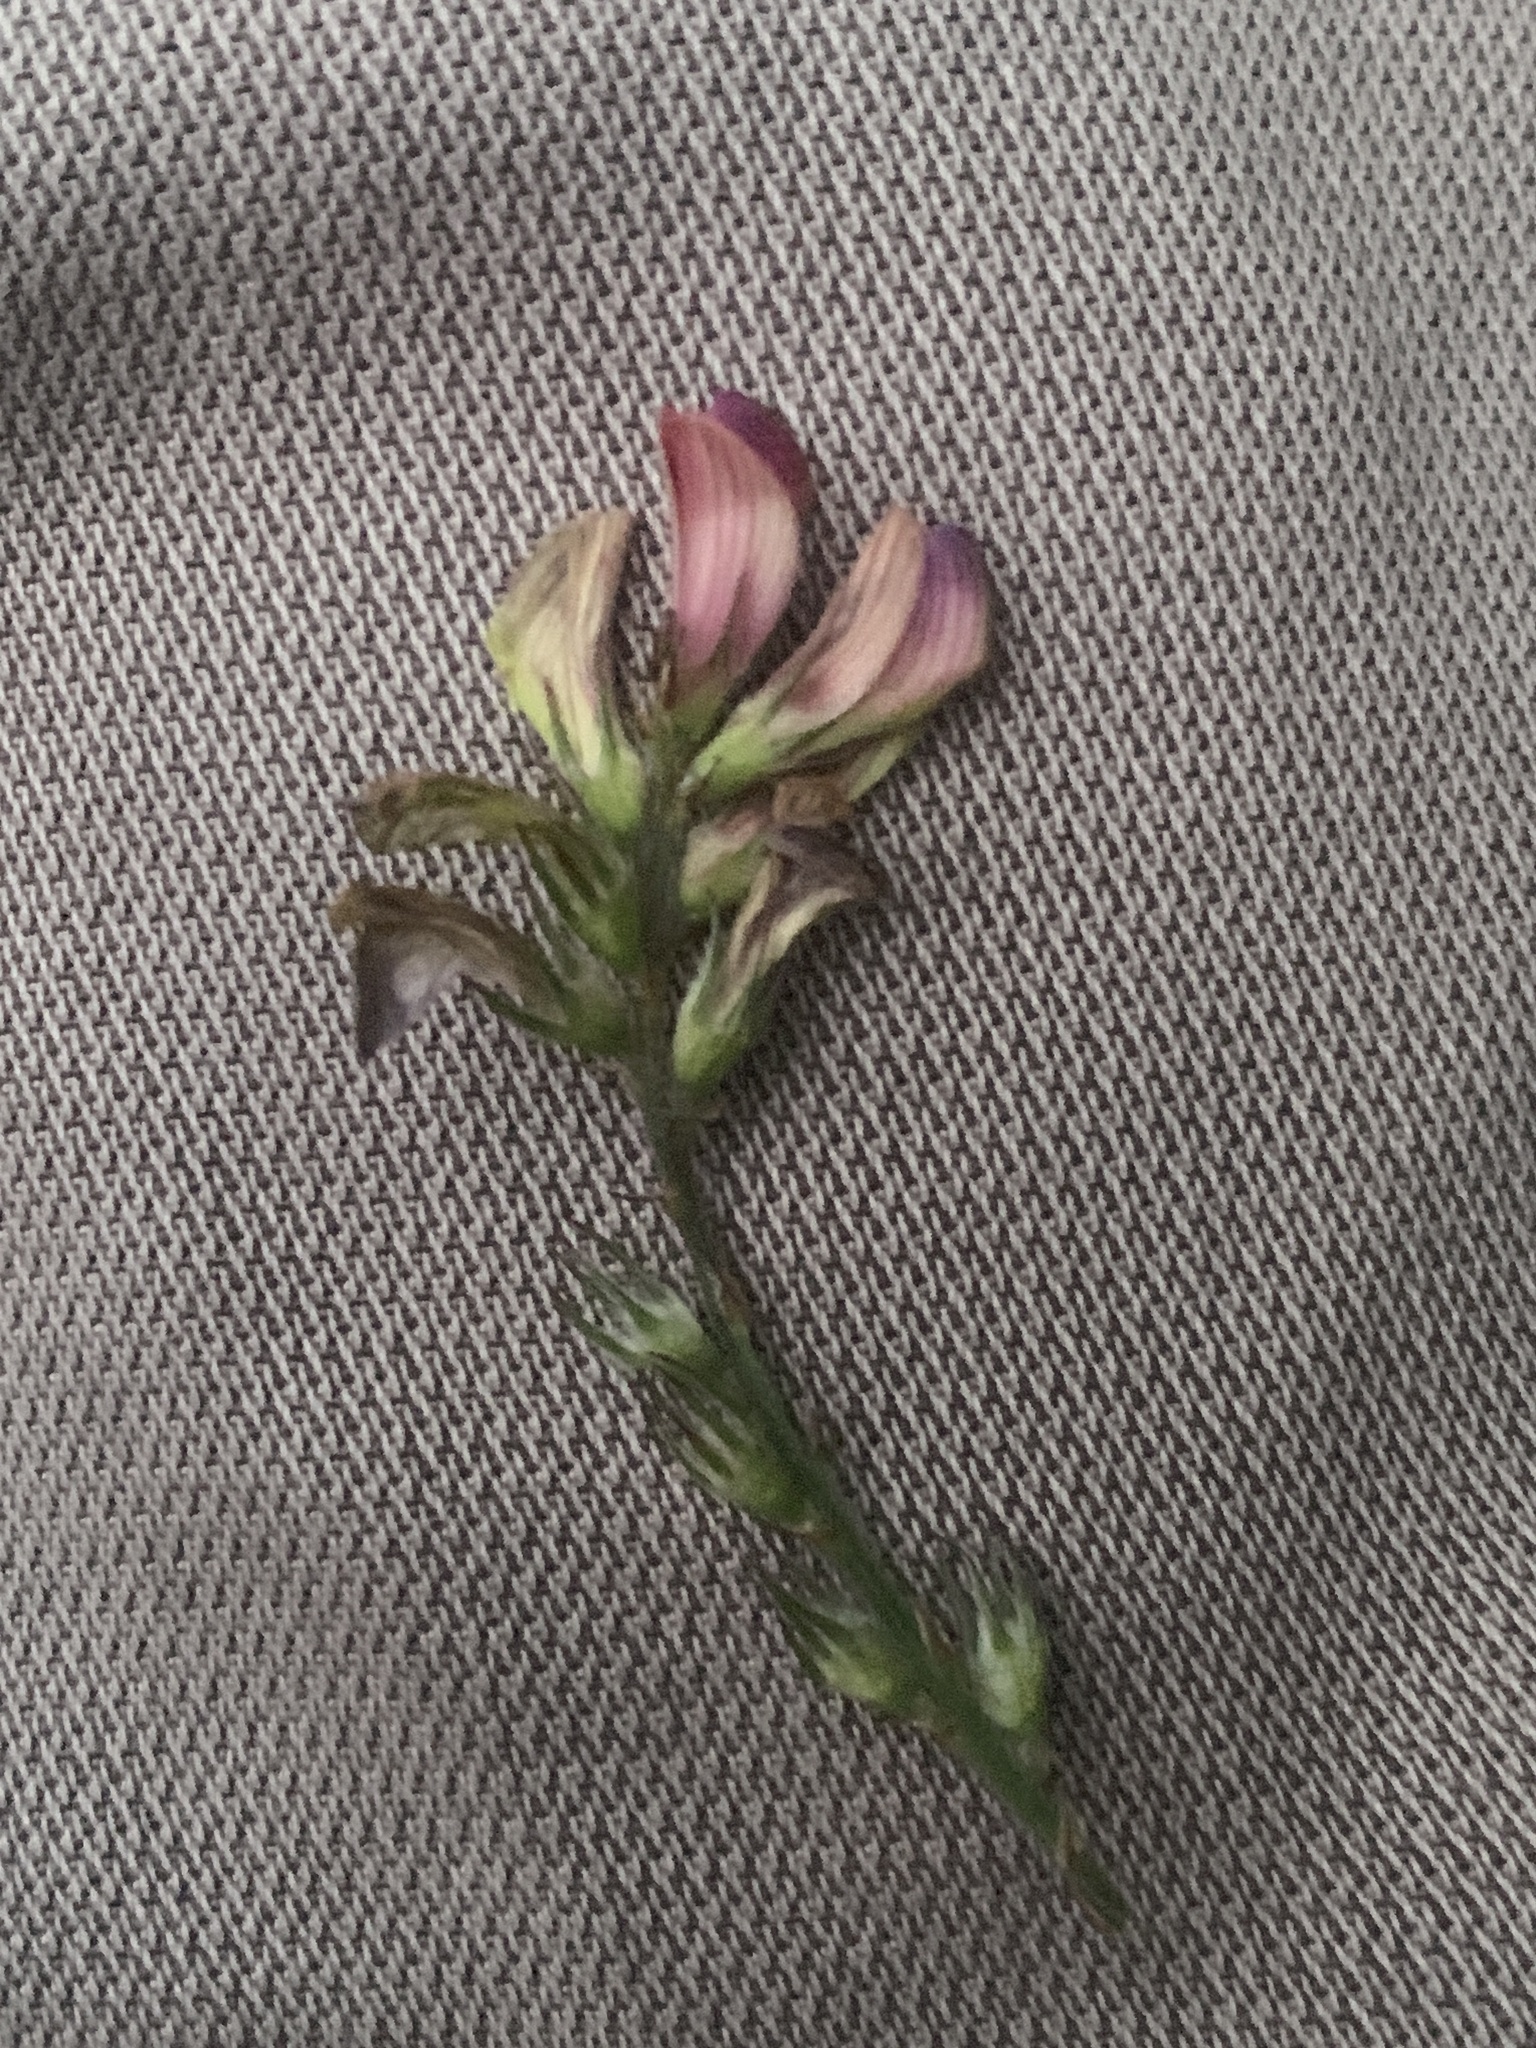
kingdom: Plantae
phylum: Tracheophyta
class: Magnoliopsida
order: Fabales
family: Fabaceae
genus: Onobrychis
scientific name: Onobrychis viciifolia
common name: Sainfoin
